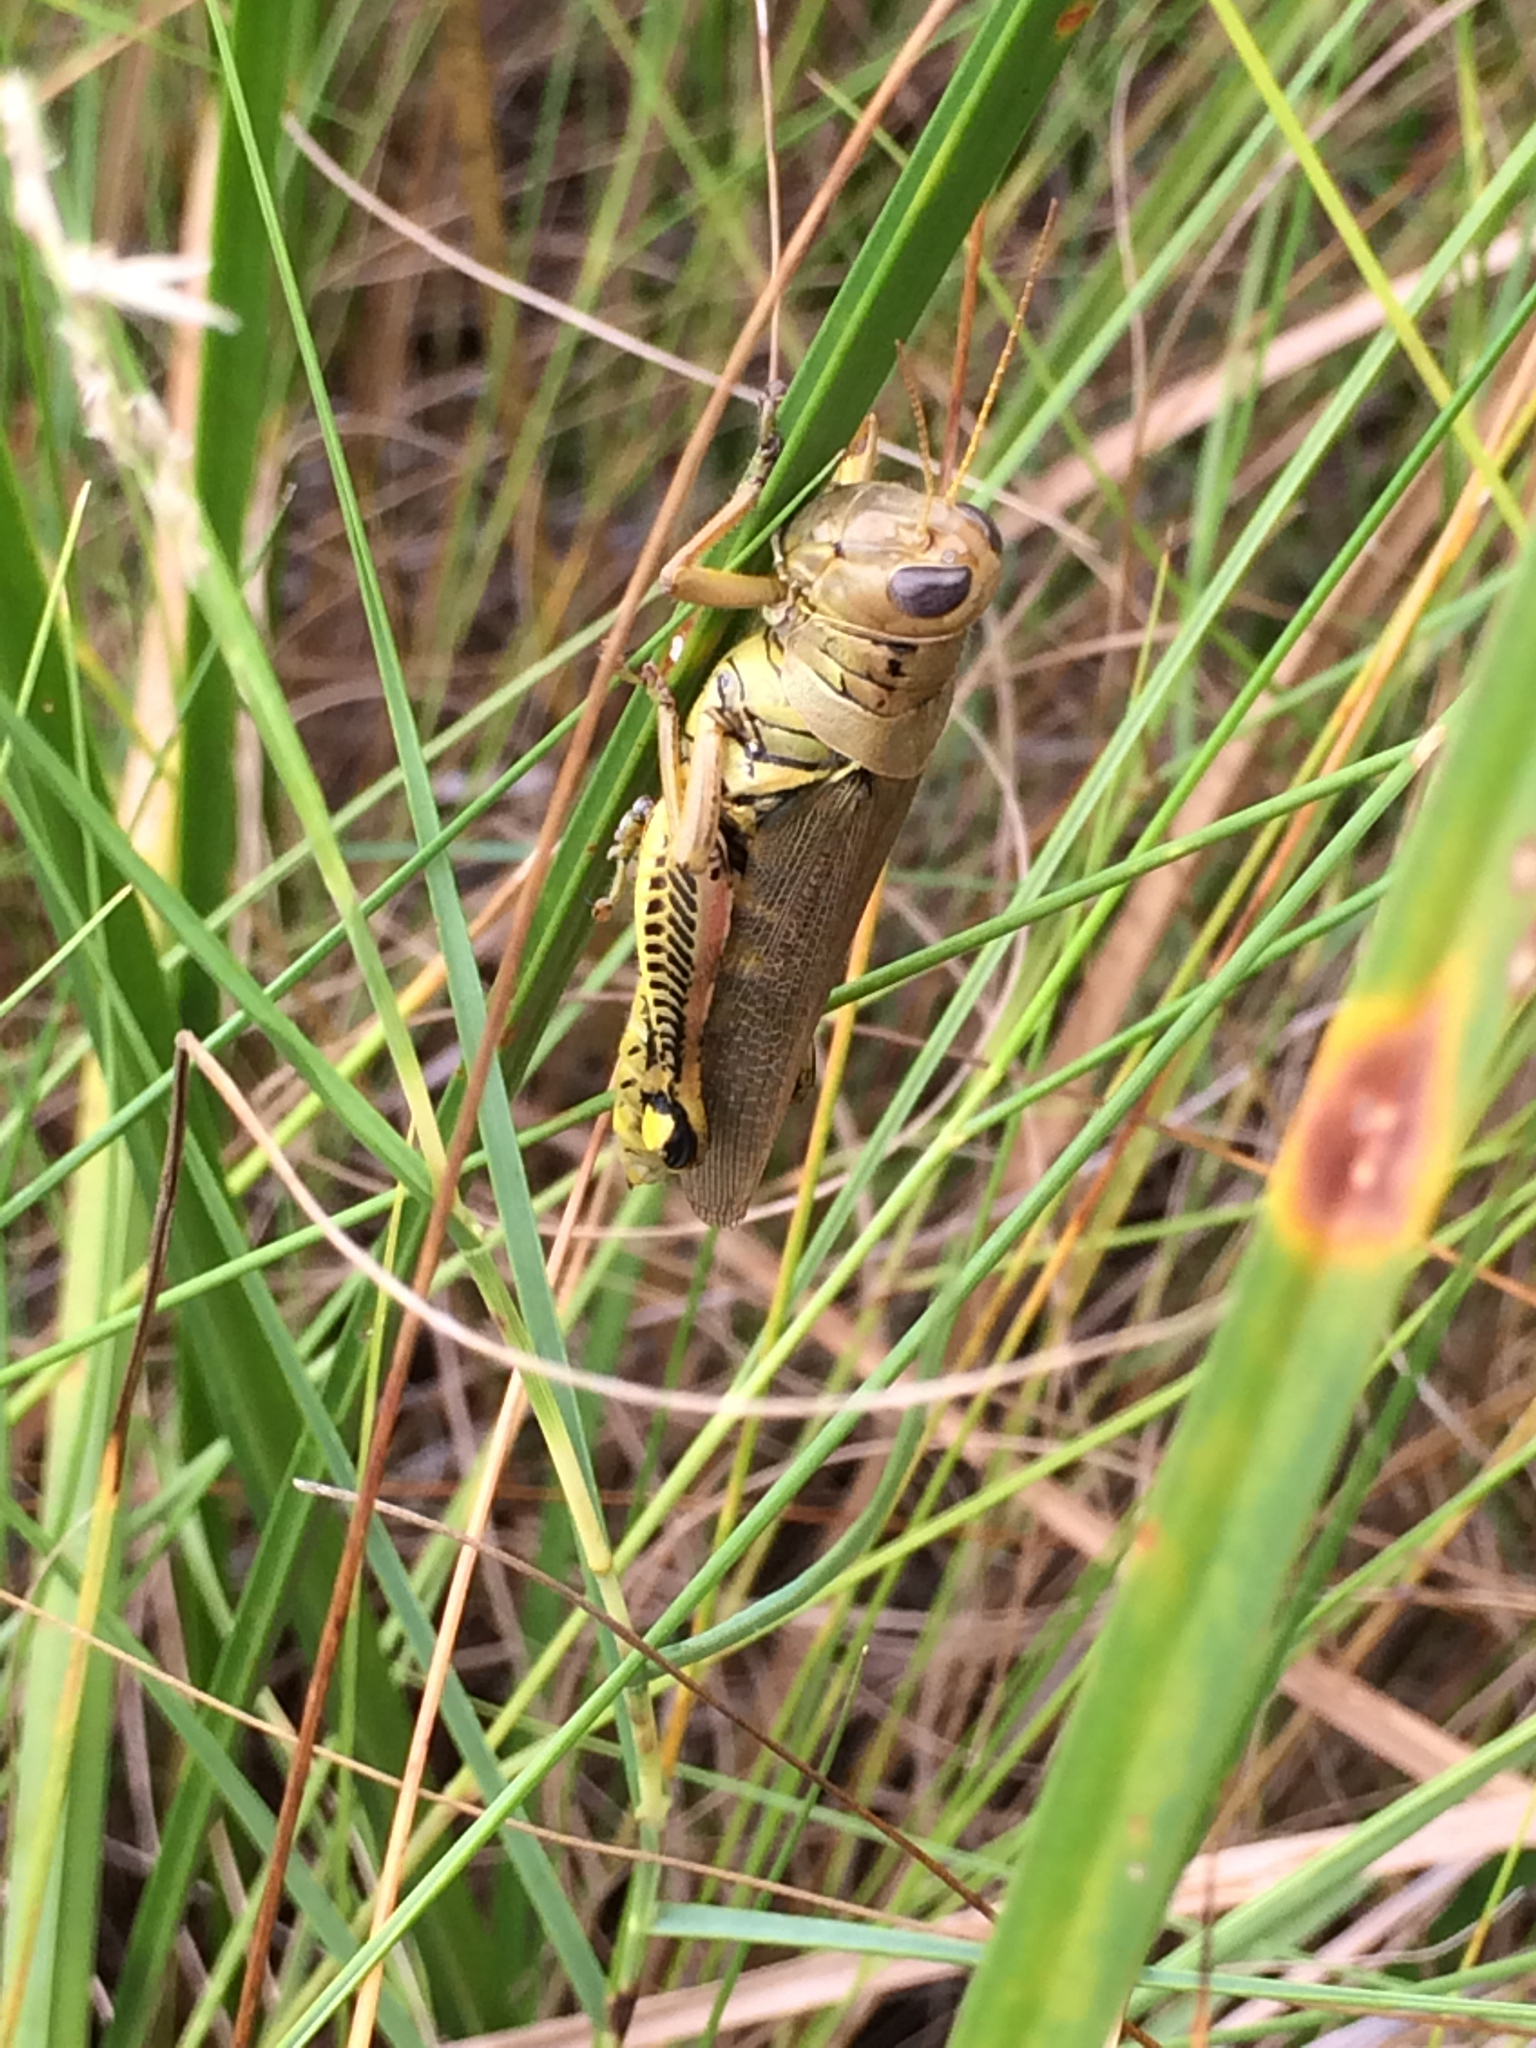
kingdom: Animalia
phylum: Arthropoda
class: Insecta
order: Orthoptera
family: Acrididae
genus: Melanoplus
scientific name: Melanoplus differentialis
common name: Differential grasshopper
